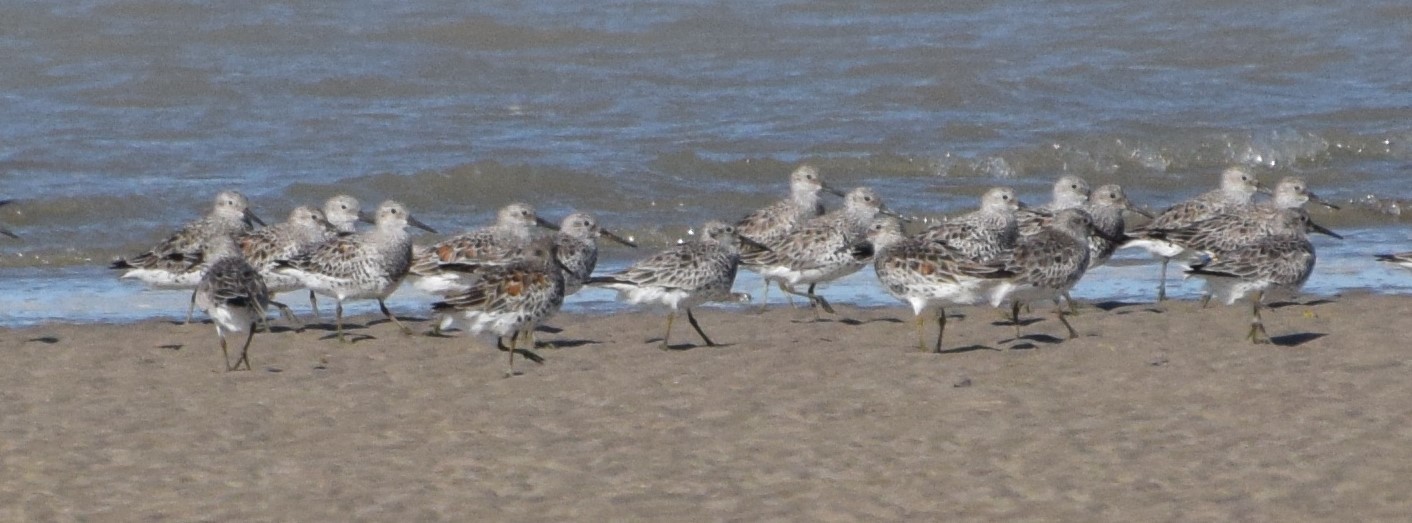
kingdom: Animalia
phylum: Chordata
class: Aves
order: Charadriiformes
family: Scolopacidae
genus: Calidris
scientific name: Calidris tenuirostris
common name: Great knot
